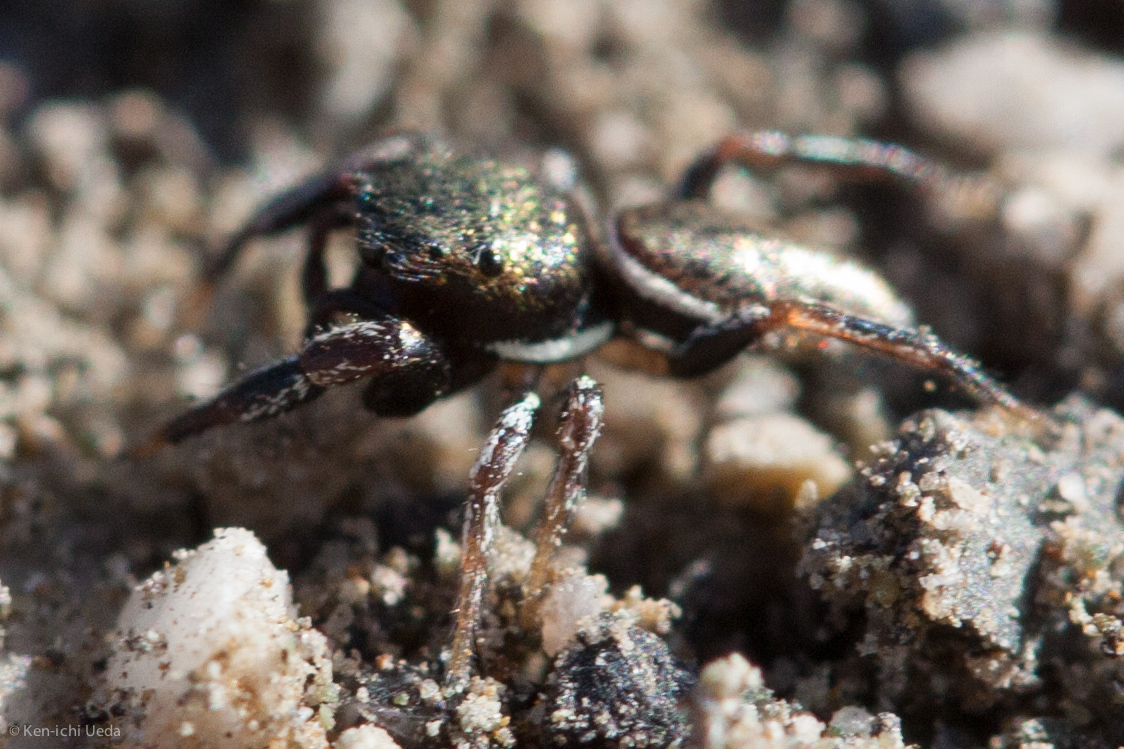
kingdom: Animalia
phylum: Arthropoda
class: Arachnida
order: Araneae
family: Salticidae
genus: Sassacus
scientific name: Sassacus vitis
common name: Jumping spiders
